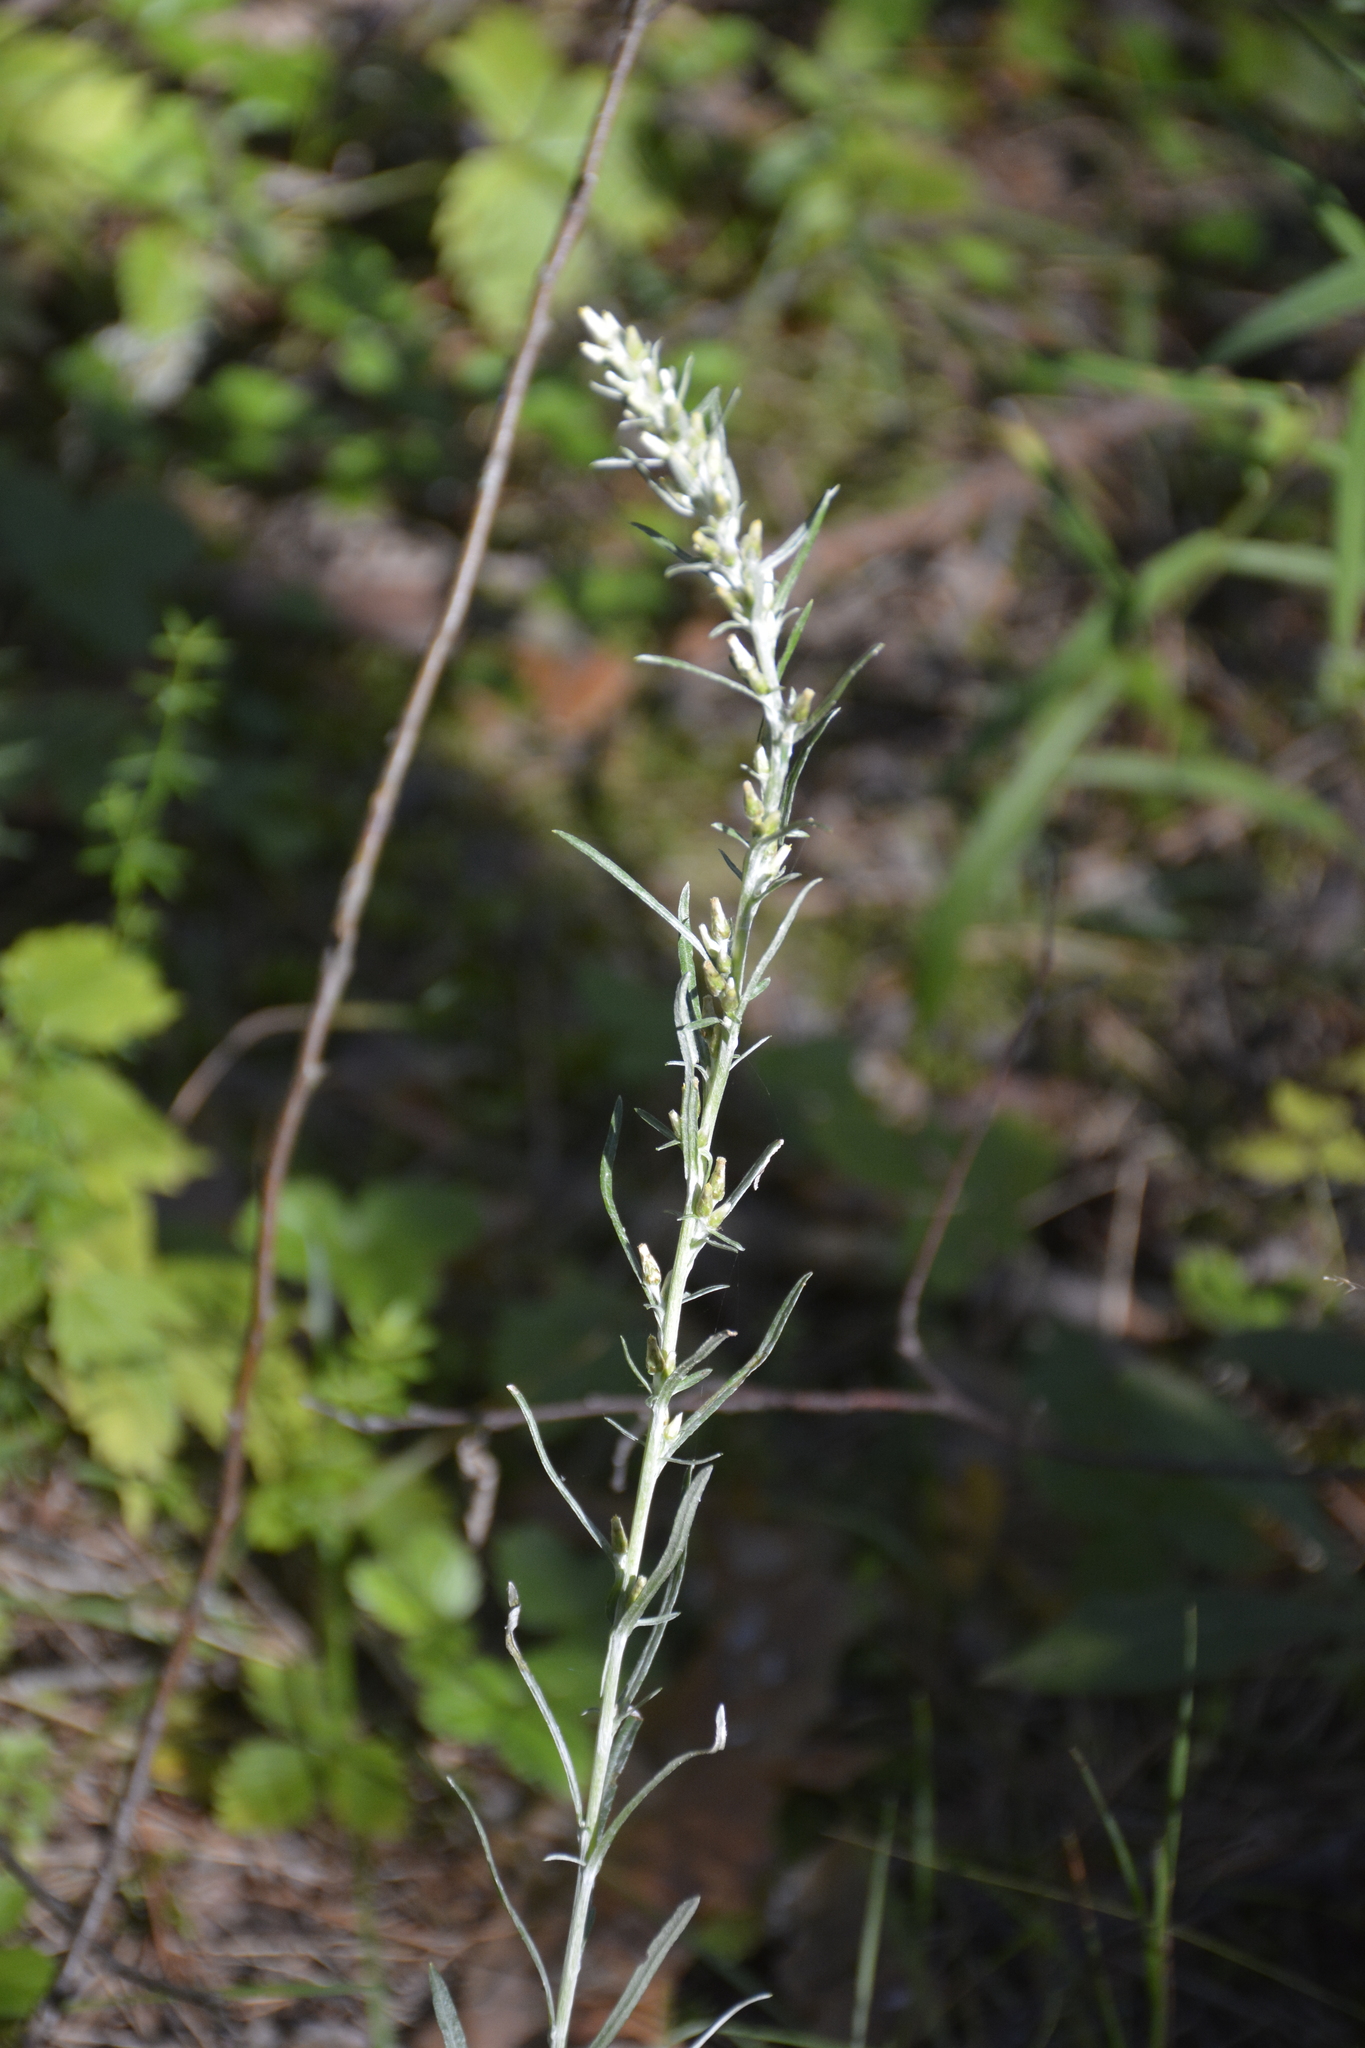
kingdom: Plantae
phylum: Tracheophyta
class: Magnoliopsida
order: Asterales
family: Asteraceae
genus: Omalotheca
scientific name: Omalotheca sylvatica
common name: Heath cudweed
